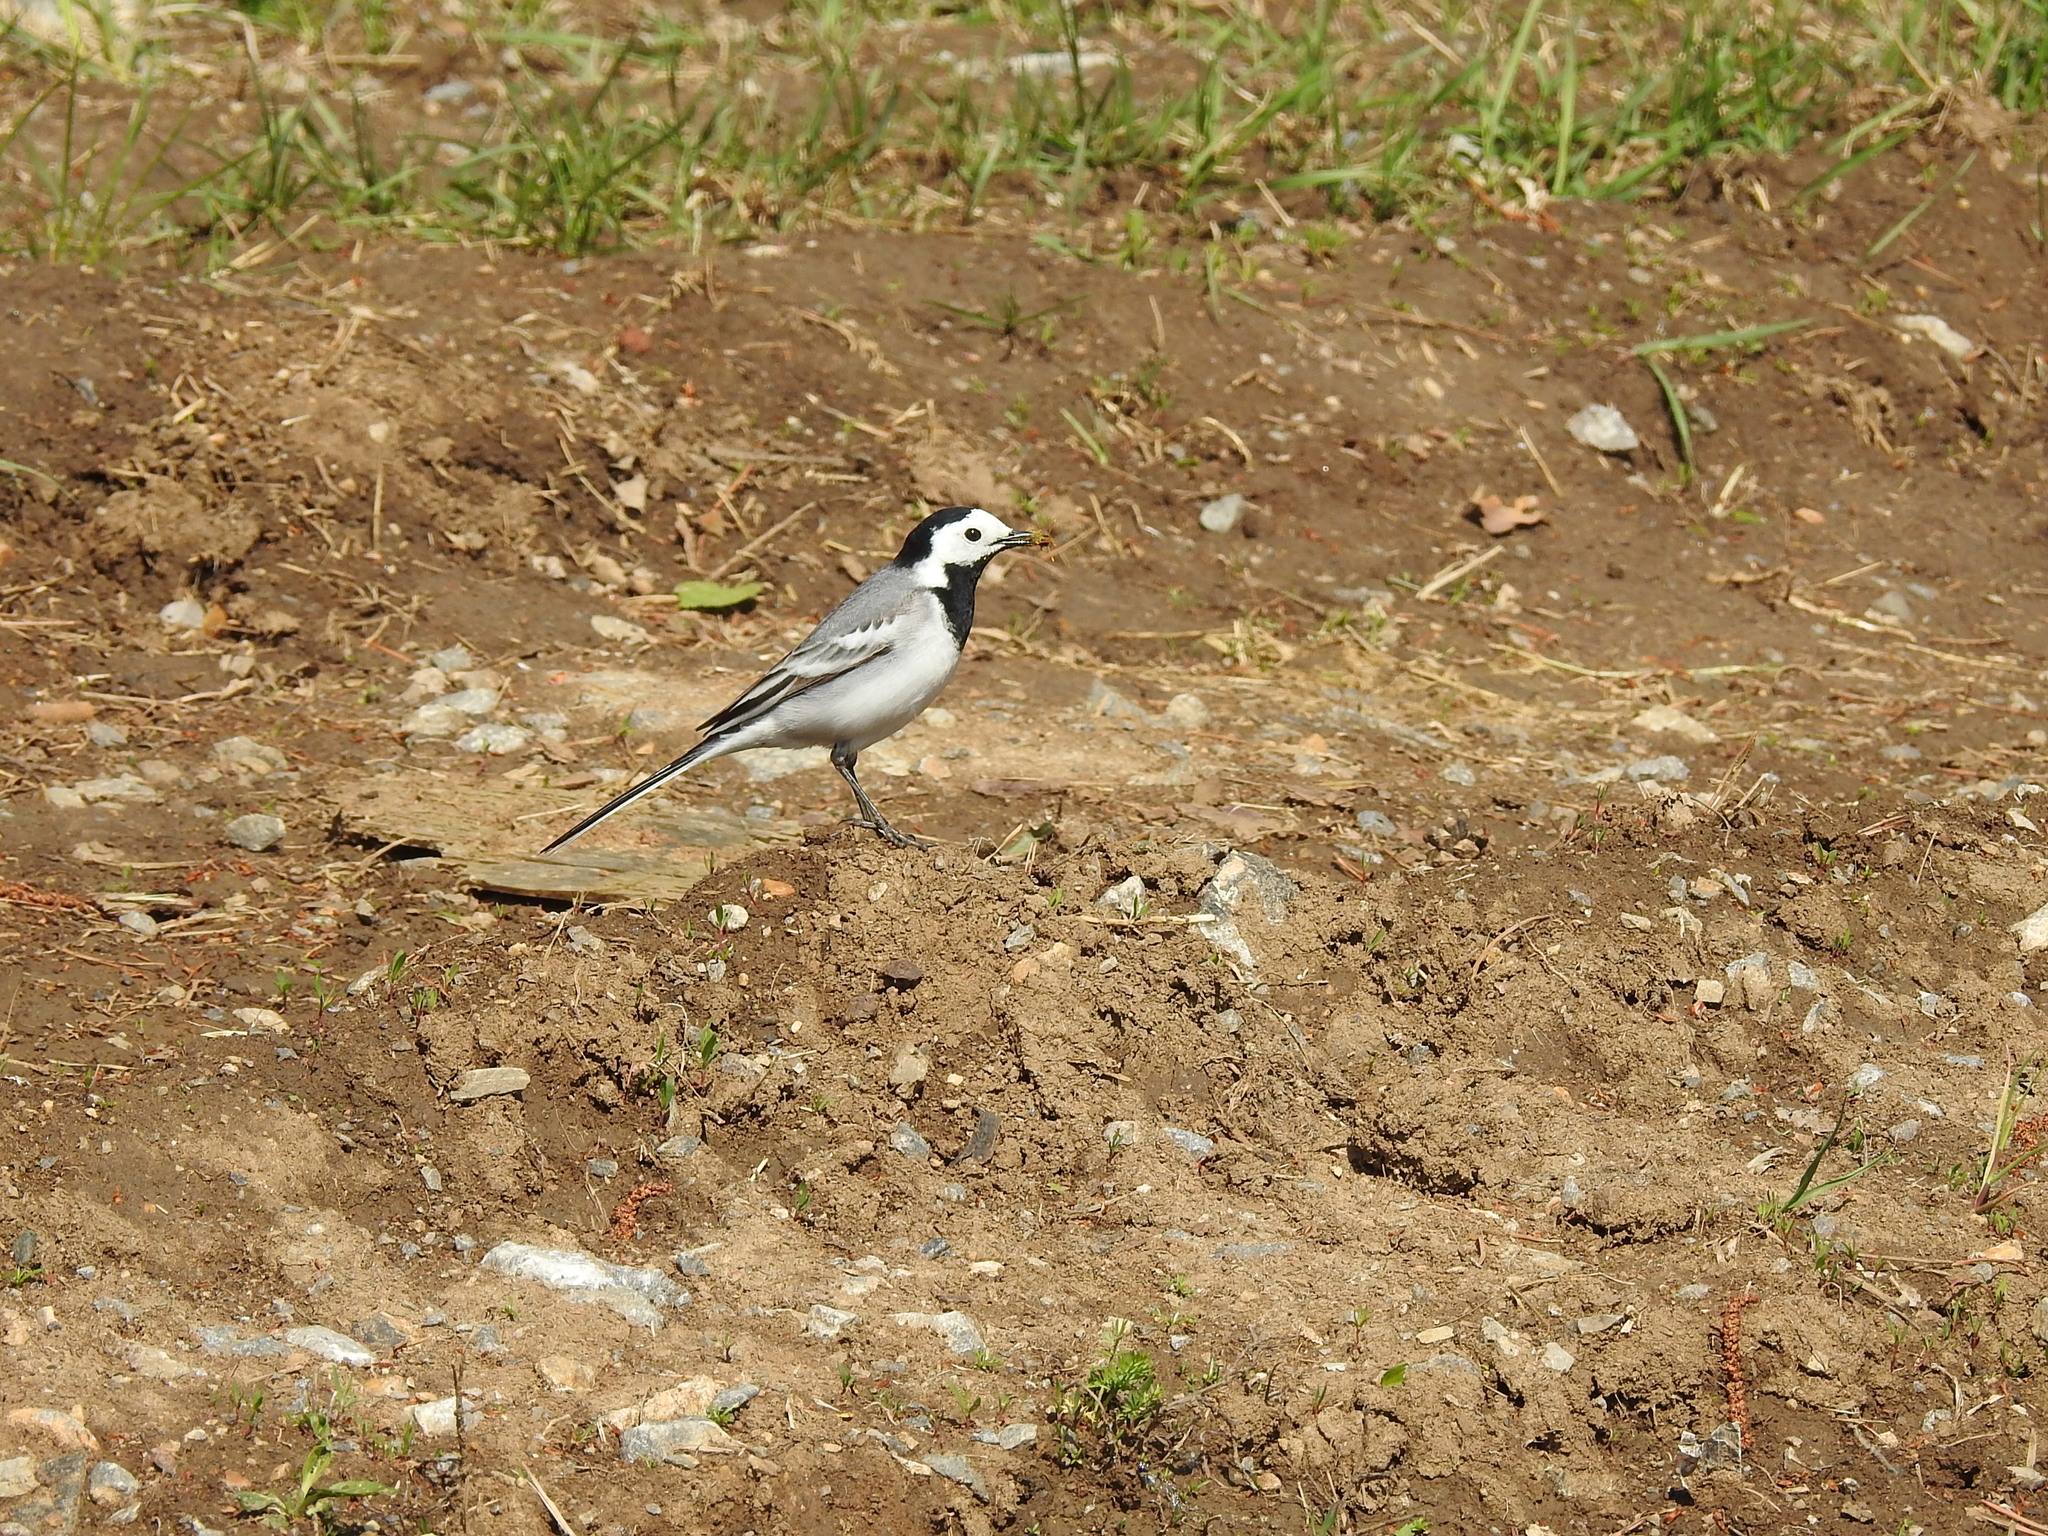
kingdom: Animalia
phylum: Chordata
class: Aves
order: Passeriformes
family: Motacillidae
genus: Motacilla
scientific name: Motacilla alba
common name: White wagtail
